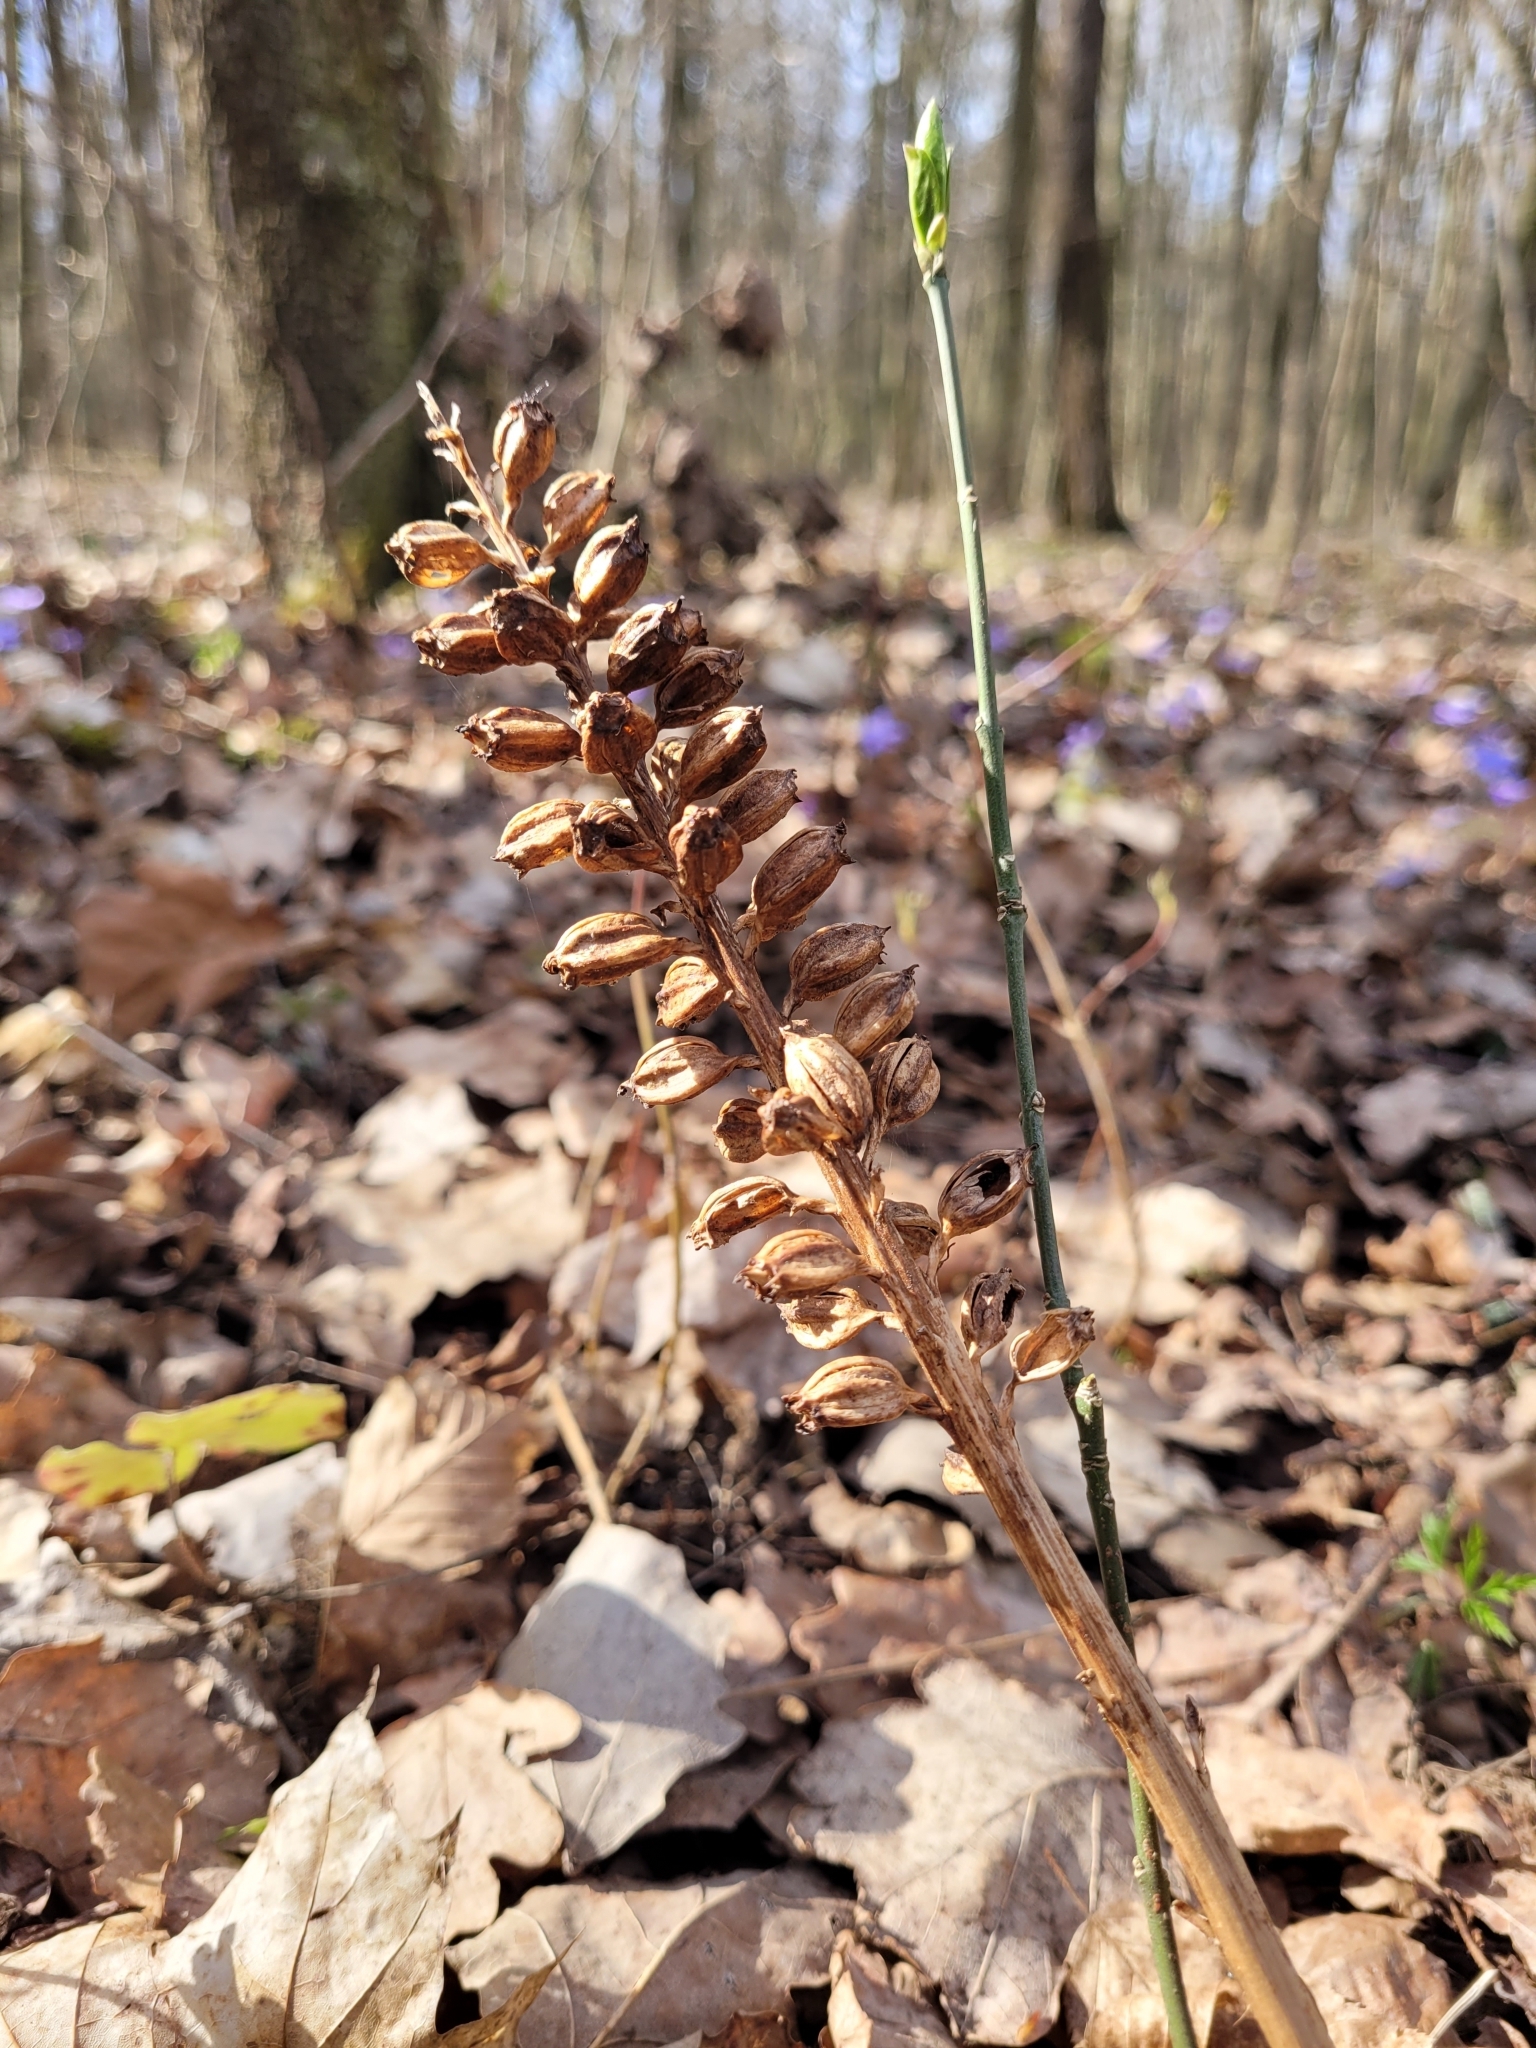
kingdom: Plantae
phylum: Tracheophyta
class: Liliopsida
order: Asparagales
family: Orchidaceae
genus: Neottia
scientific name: Neottia nidus-avis
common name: Bird's-nest orchid
